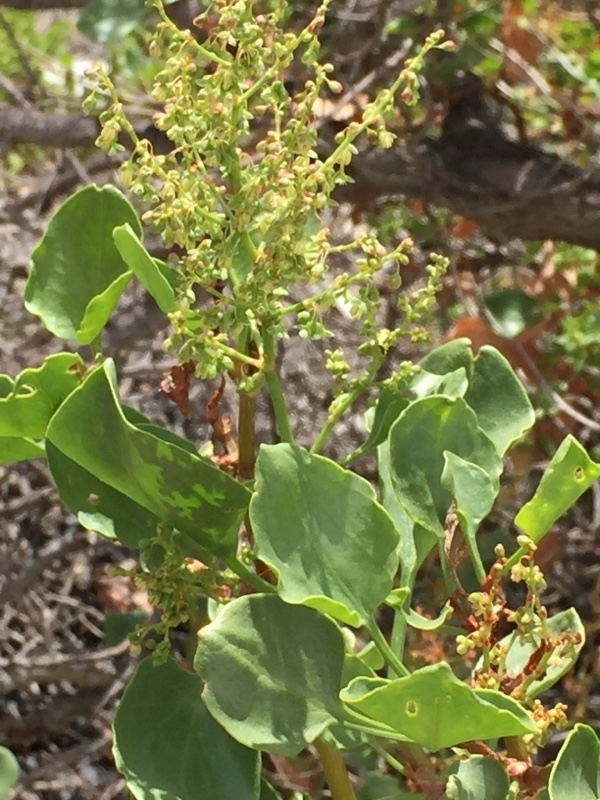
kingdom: Plantae
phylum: Tracheophyta
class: Magnoliopsida
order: Caryophyllales
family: Polygonaceae
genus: Rumex
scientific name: Rumex lunaria
